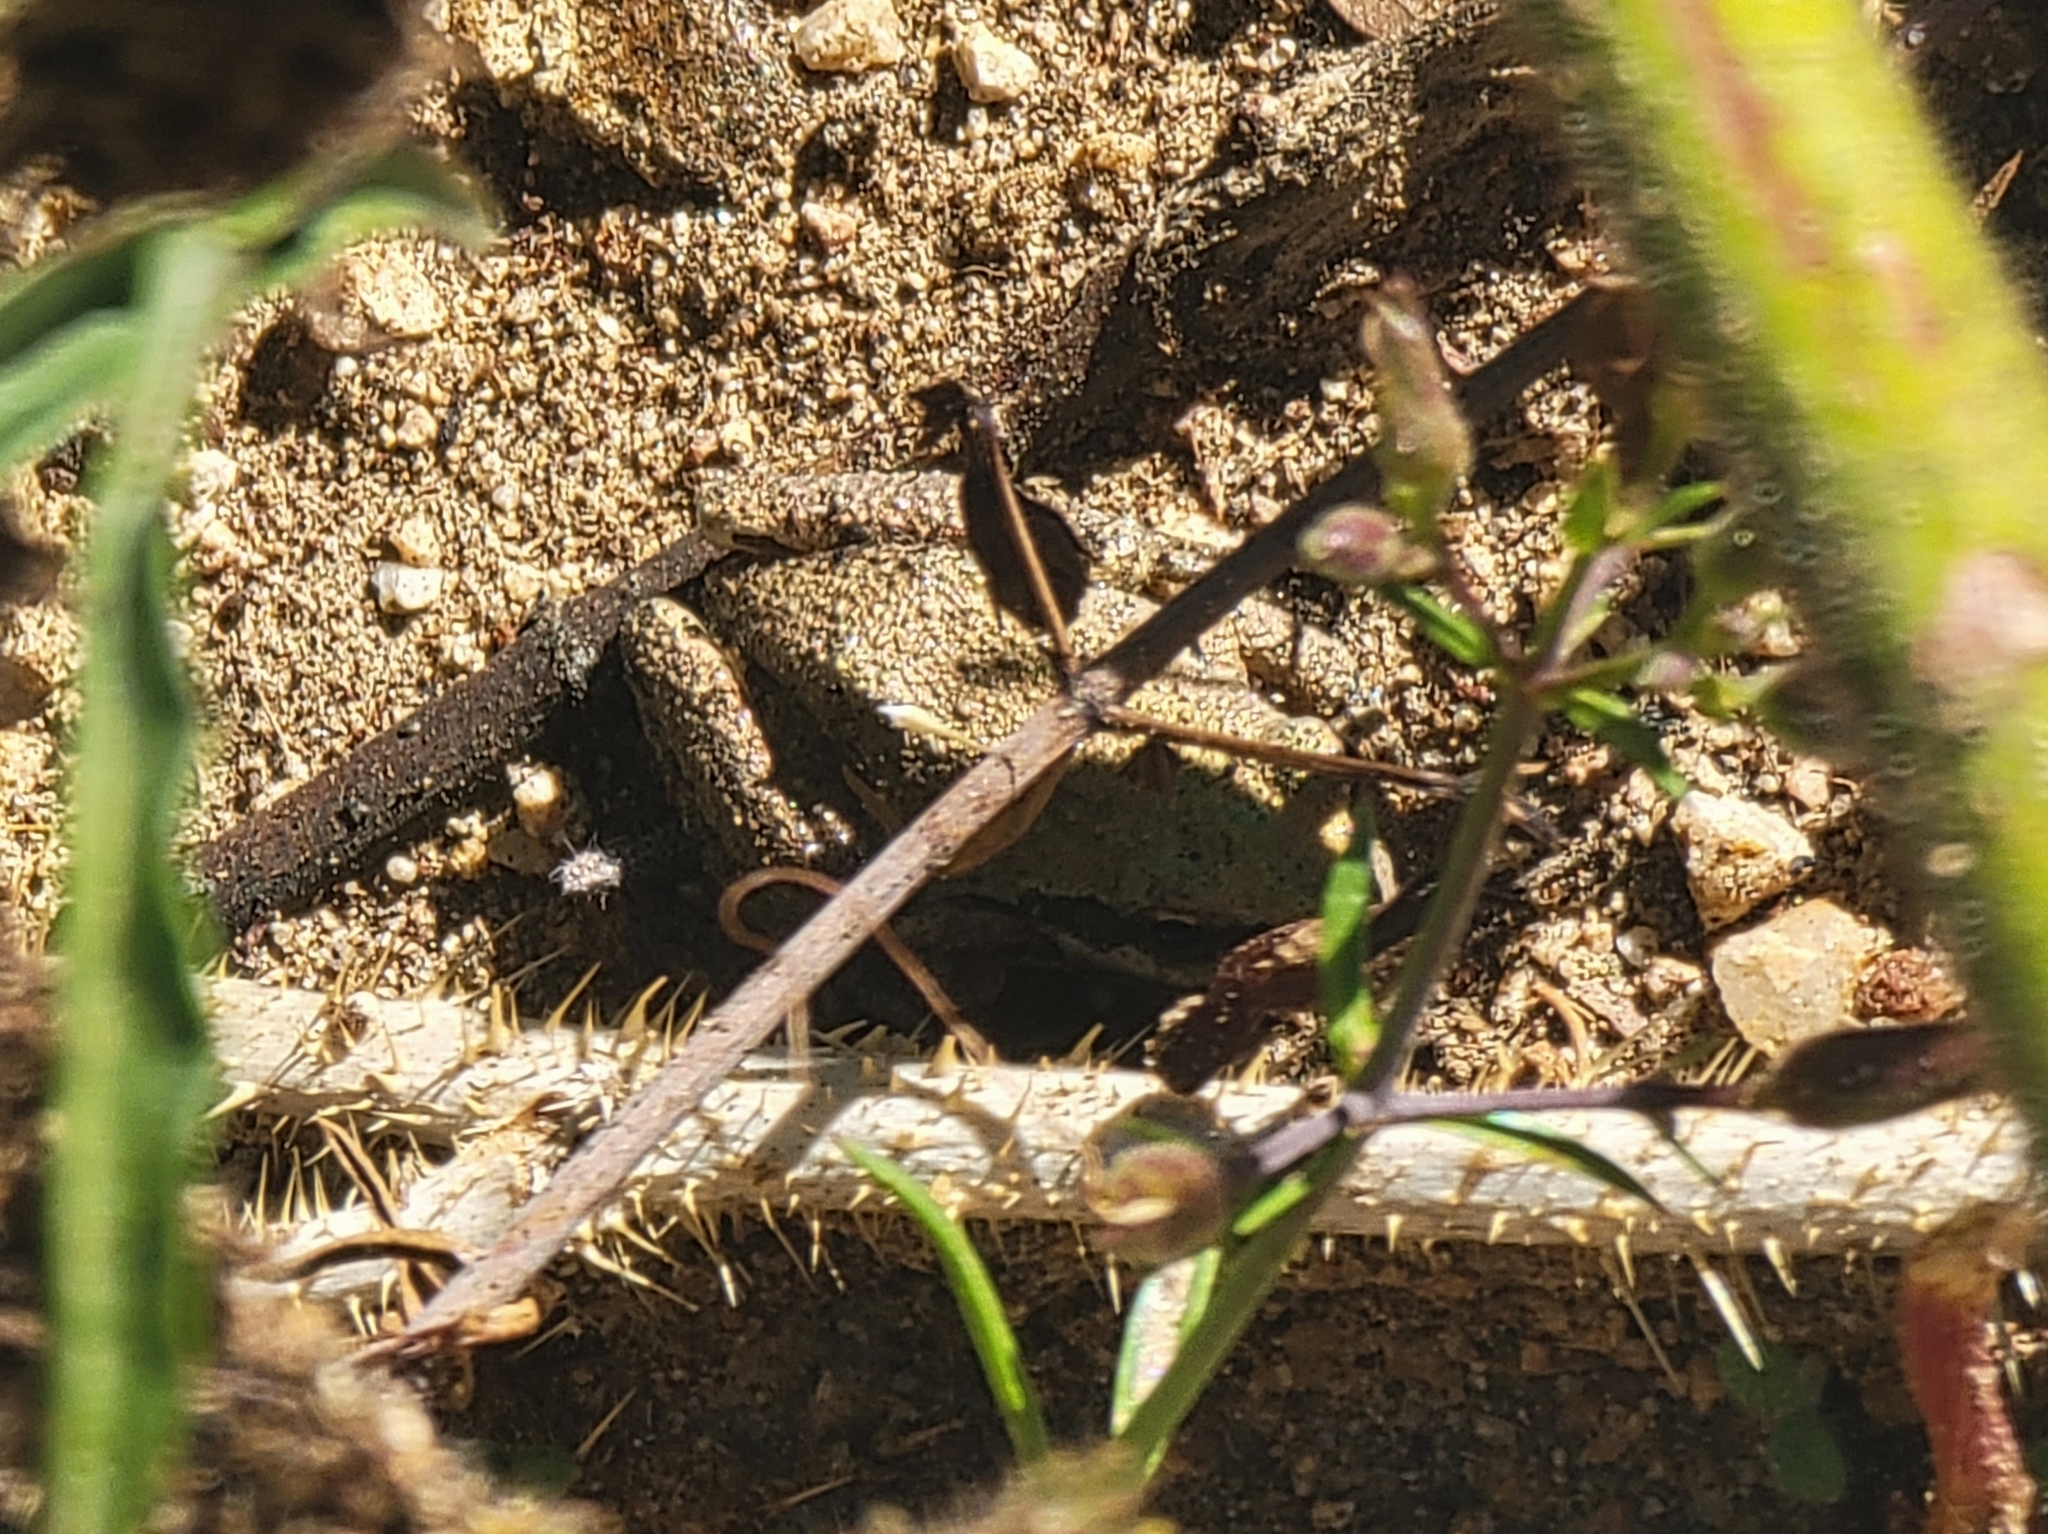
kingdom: Animalia
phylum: Chordata
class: Amphibia
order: Anura
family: Hylidae
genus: Pseudacris
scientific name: Pseudacris regilla
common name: Pacific chorus frog
